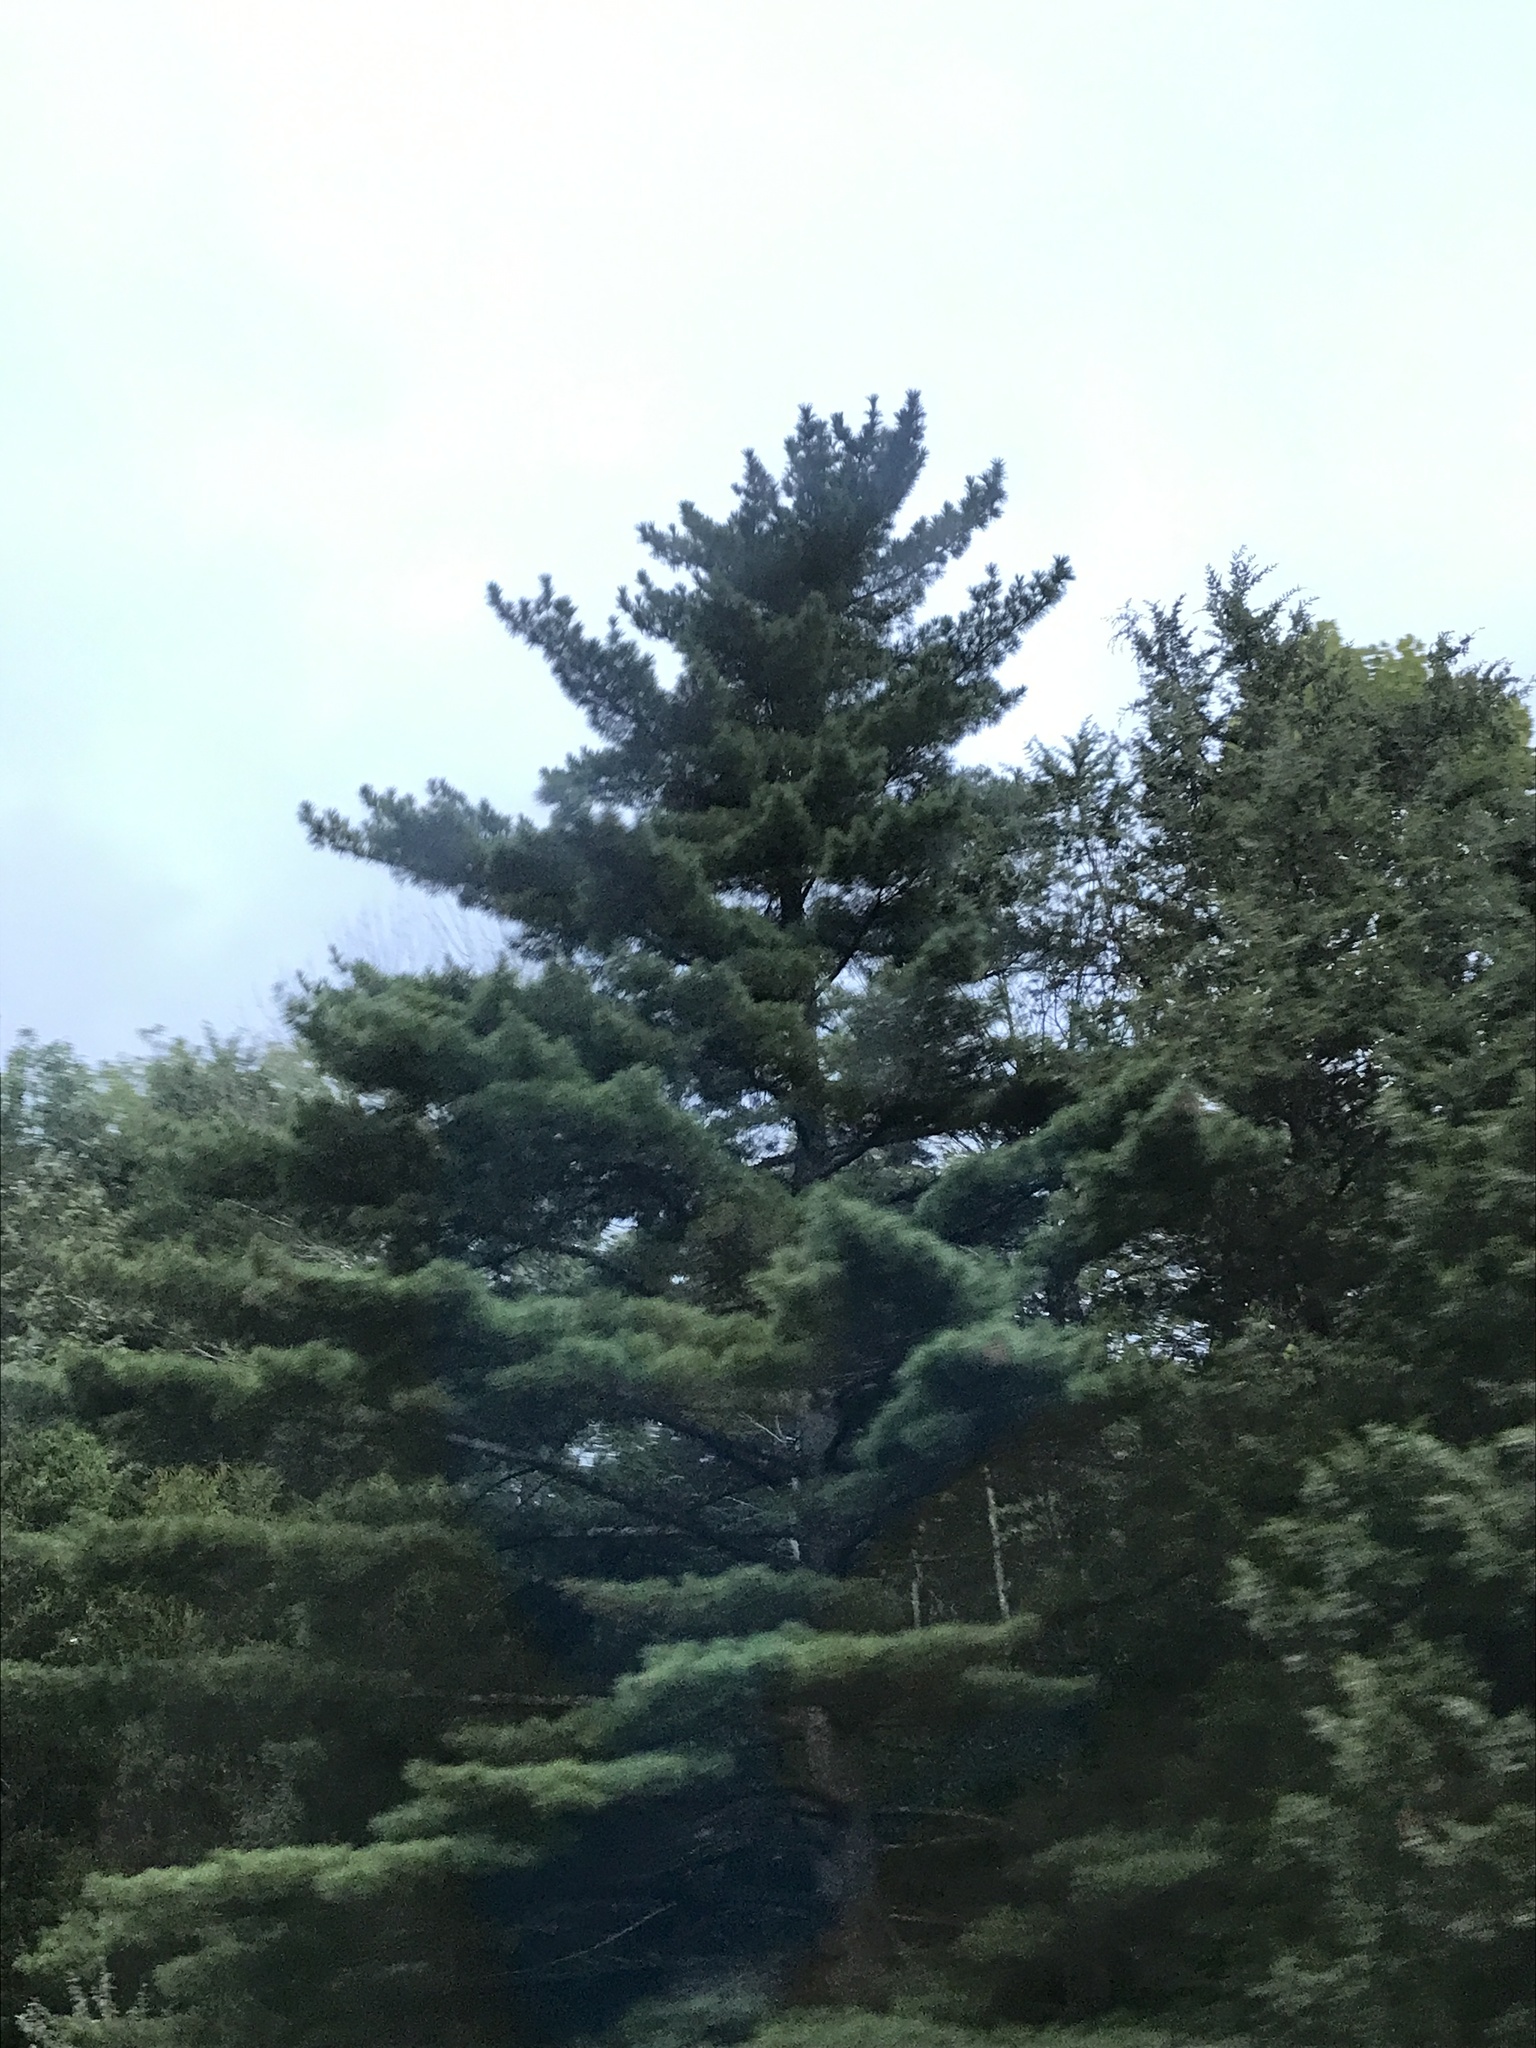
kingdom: Plantae
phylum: Tracheophyta
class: Pinopsida
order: Pinales
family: Pinaceae
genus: Pinus
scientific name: Pinus strobus
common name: Weymouth pine
